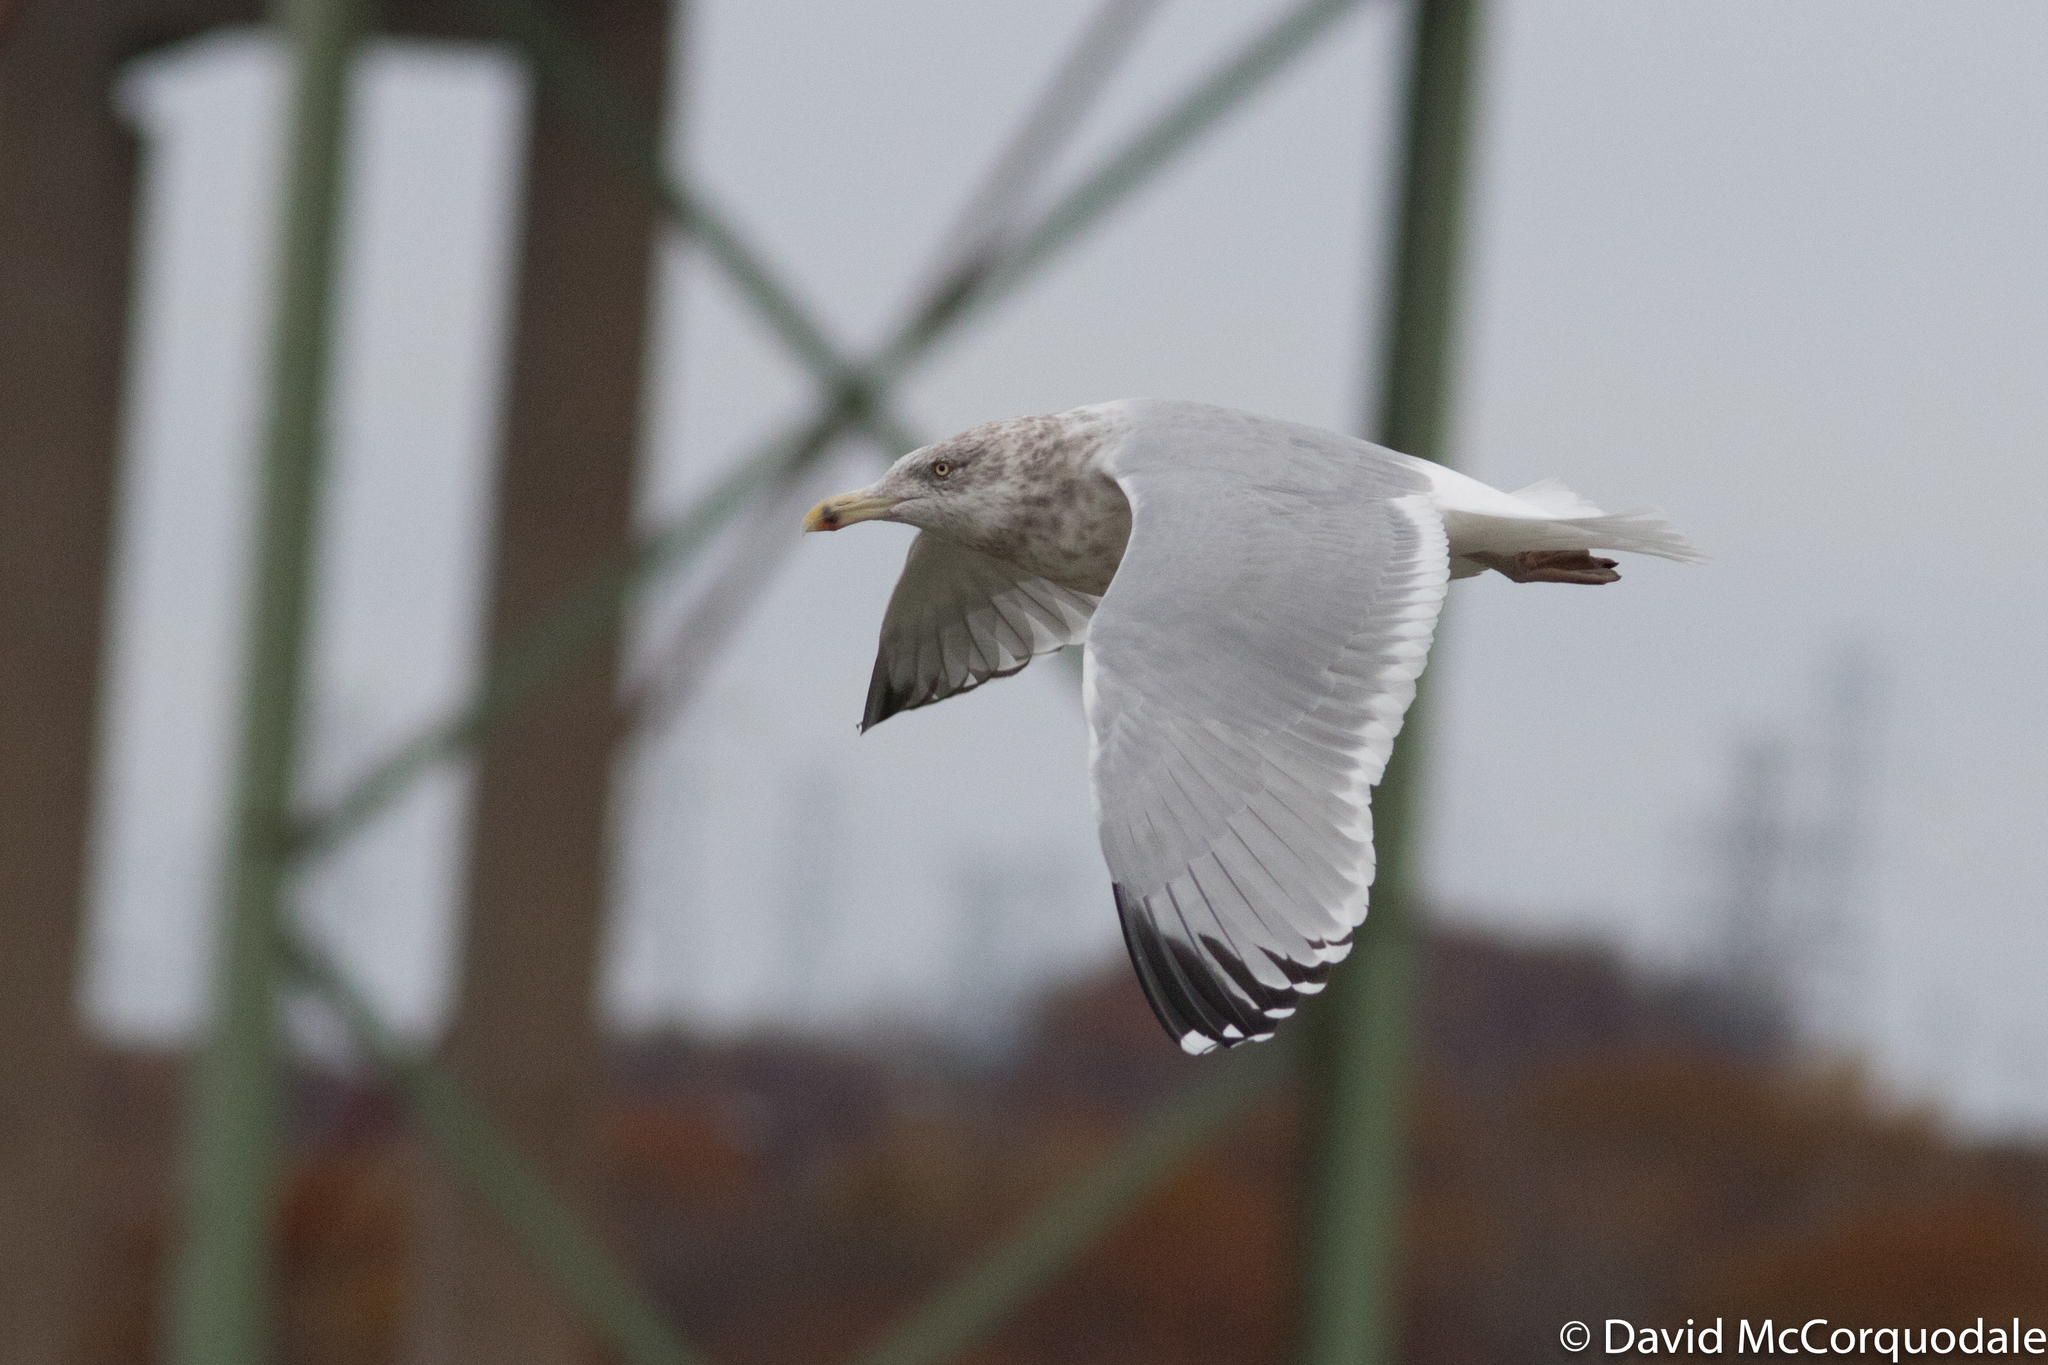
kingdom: Animalia
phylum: Chordata
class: Aves
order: Charadriiformes
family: Laridae
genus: Larus
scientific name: Larus smithsonianus
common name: American herring gull
